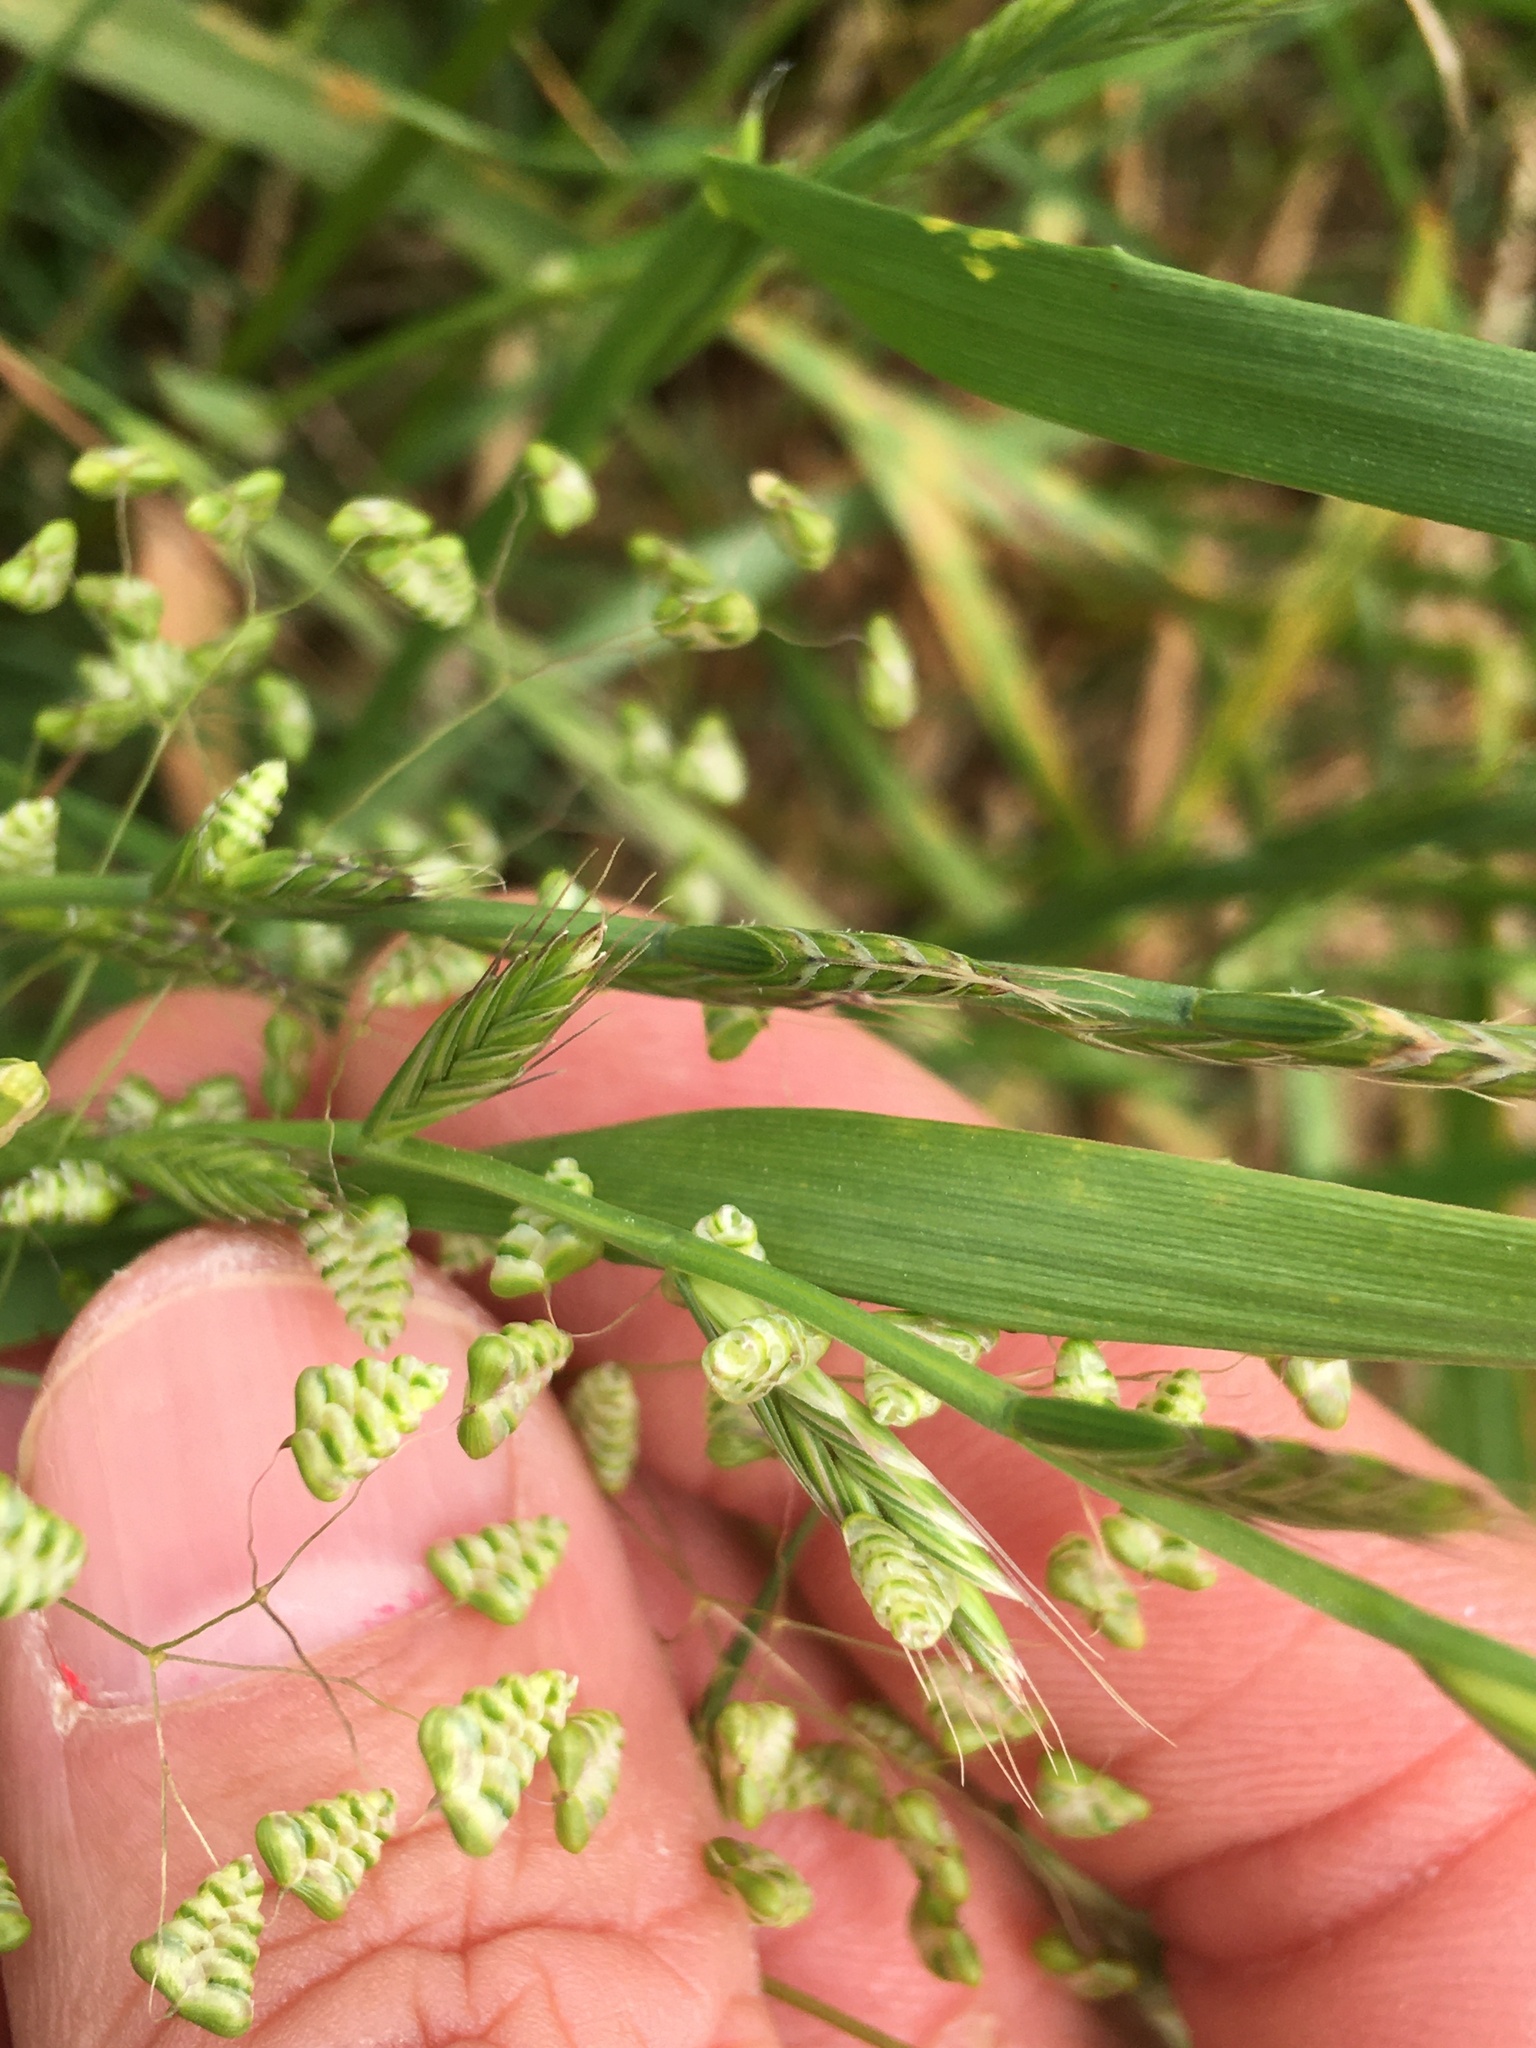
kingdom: Plantae
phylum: Tracheophyta
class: Liliopsida
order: Poales
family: Poaceae
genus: Briza
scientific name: Briza minor
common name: Lesser quaking-grass
